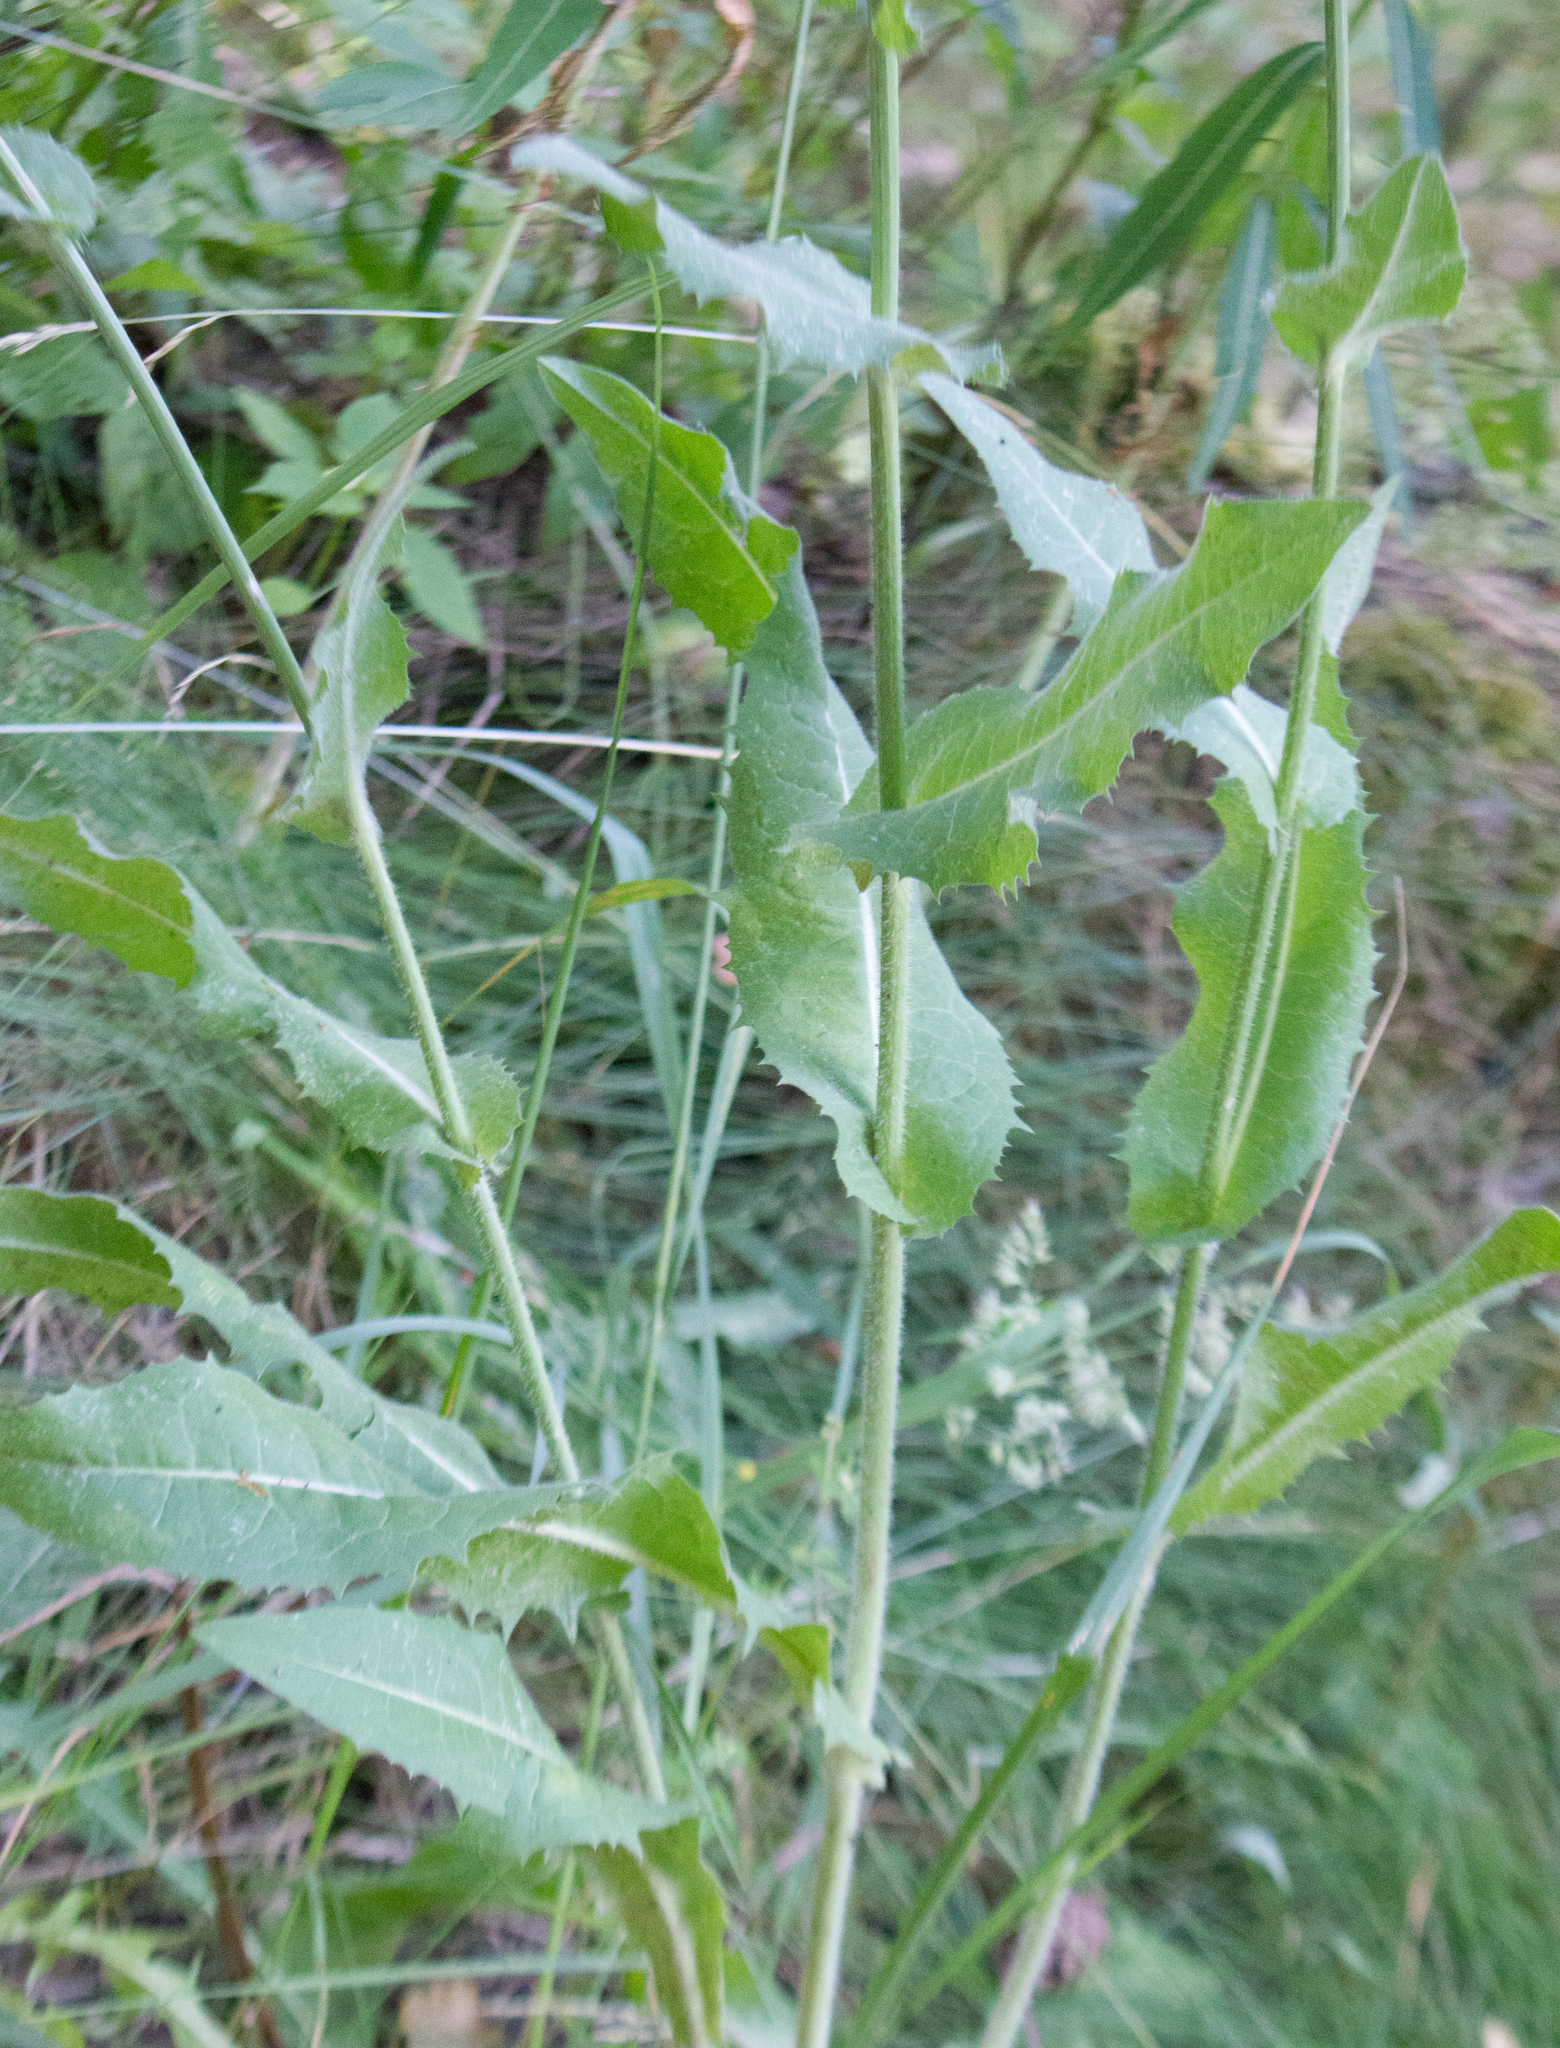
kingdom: Plantae
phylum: Tracheophyta
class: Magnoliopsida
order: Asterales
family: Asteraceae
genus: Cichorium
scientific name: Cichorium intybus
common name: Chicory
